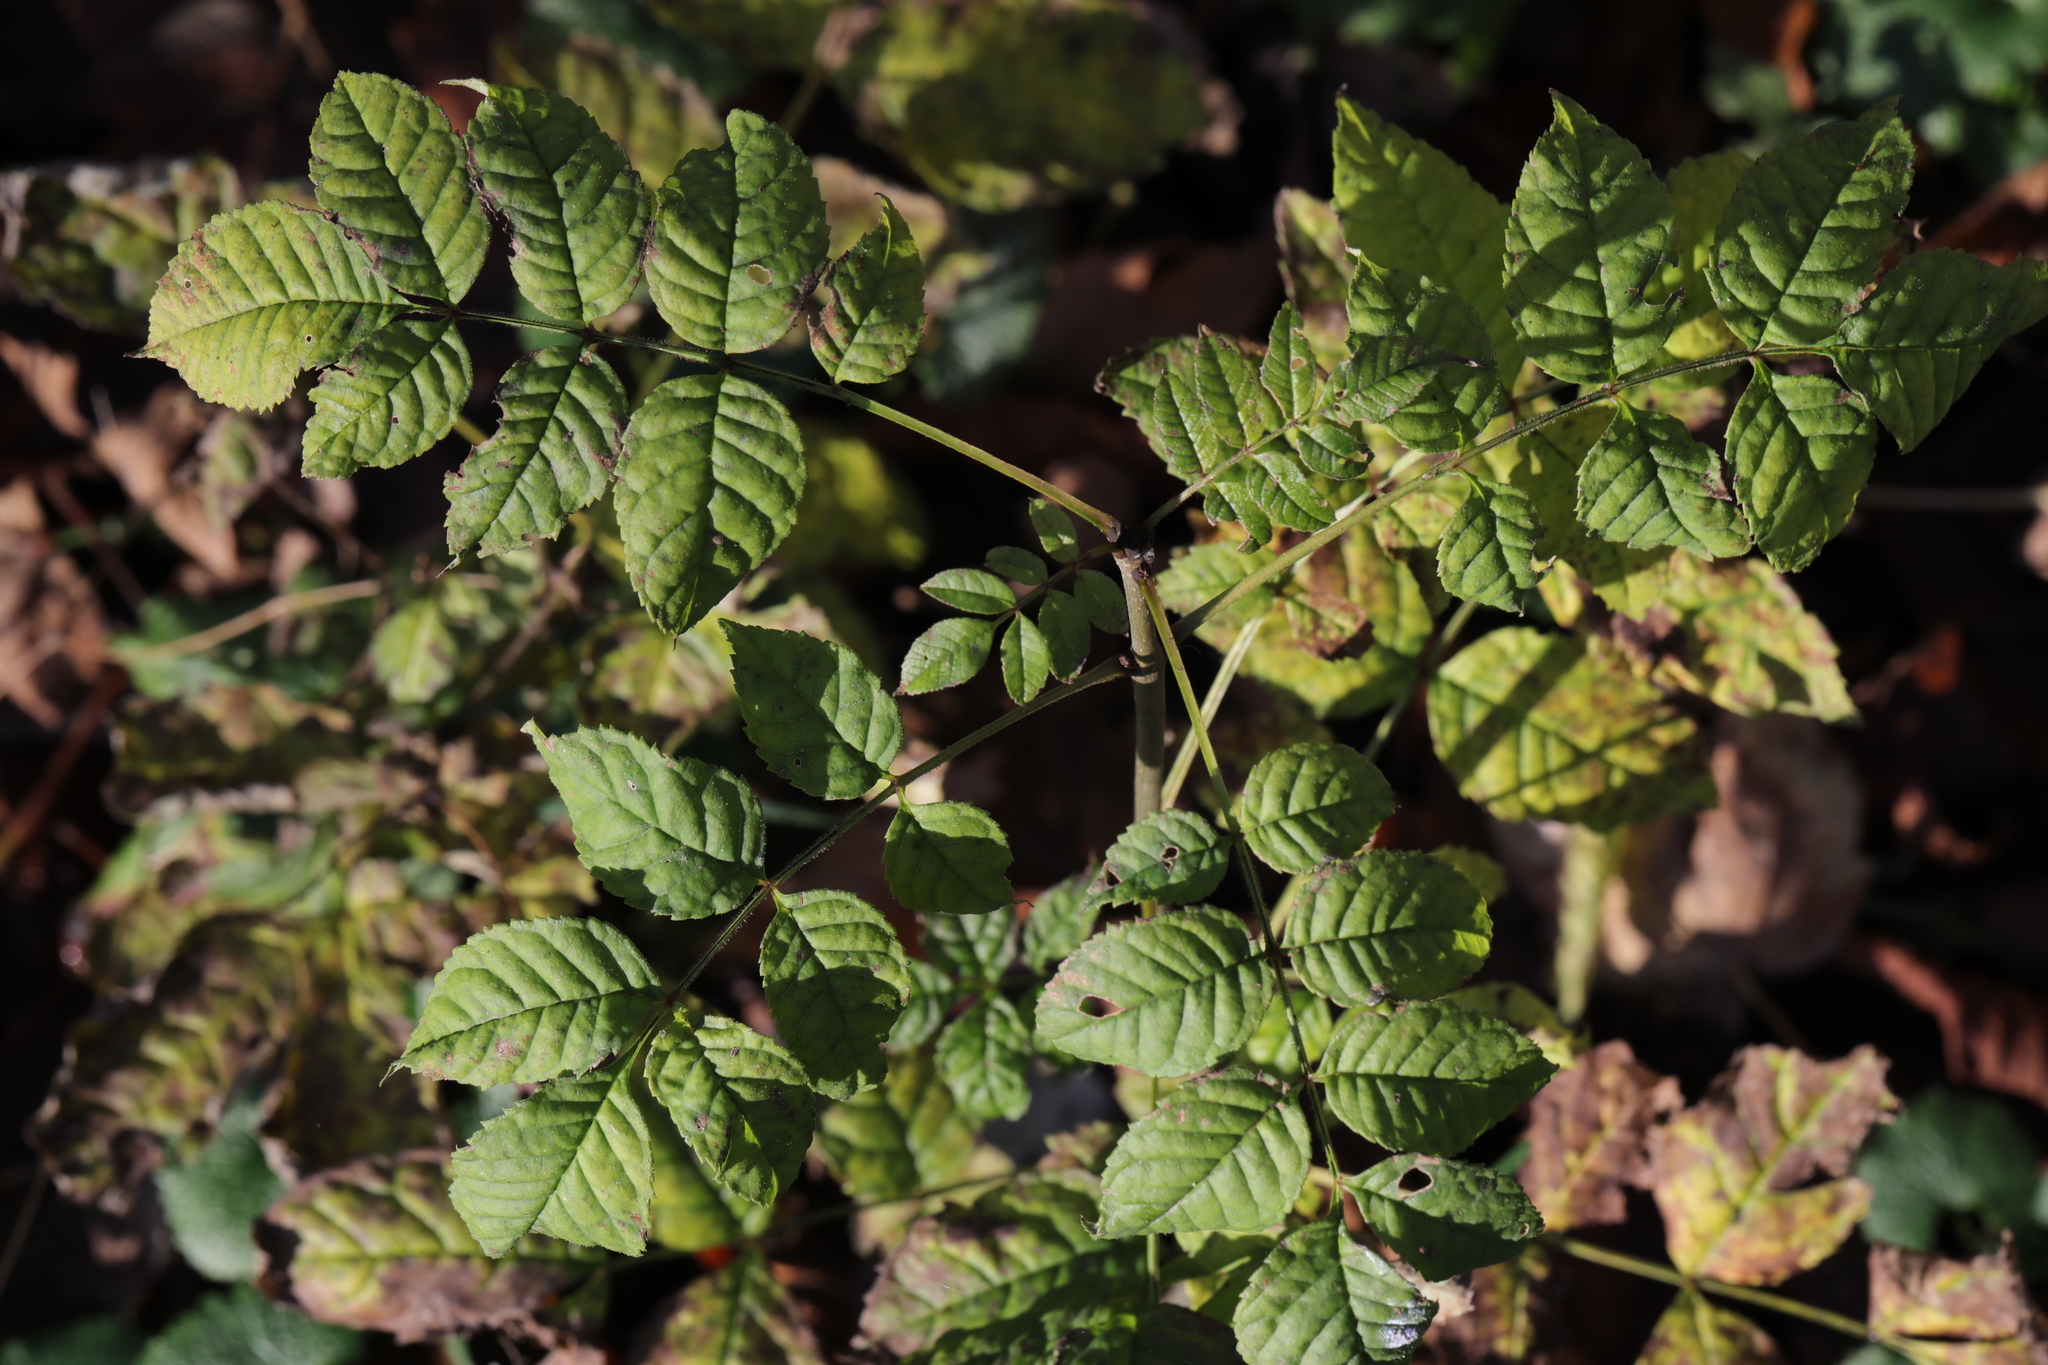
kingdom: Plantae
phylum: Tracheophyta
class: Magnoliopsida
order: Lamiales
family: Oleaceae
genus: Fraxinus
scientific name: Fraxinus excelsior
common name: European ash
